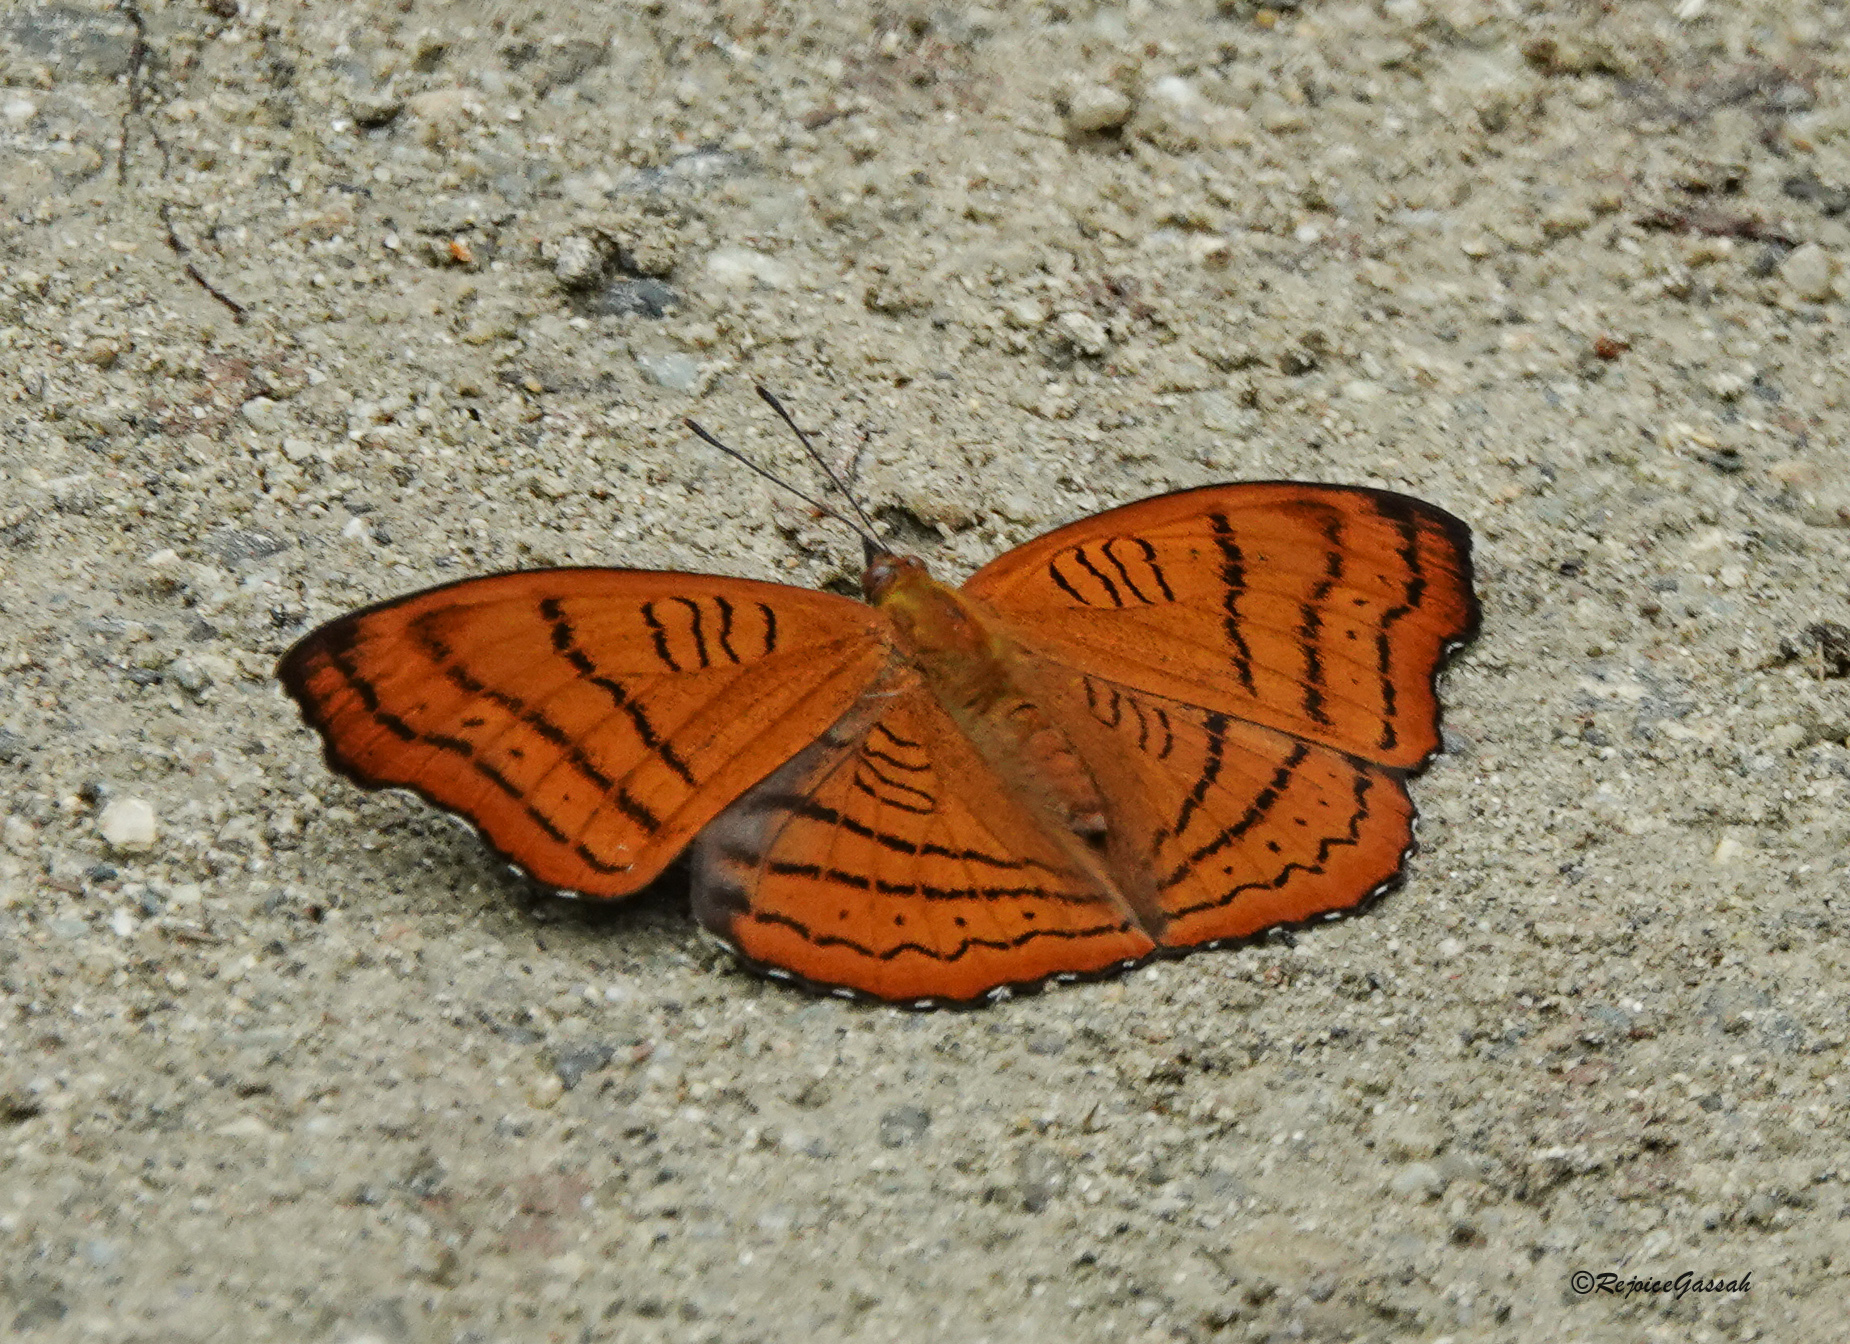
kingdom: Animalia
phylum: Arthropoda
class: Insecta
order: Lepidoptera
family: Nymphalidae
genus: Pseudergolis
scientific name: Pseudergolis wedah
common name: Tabby
